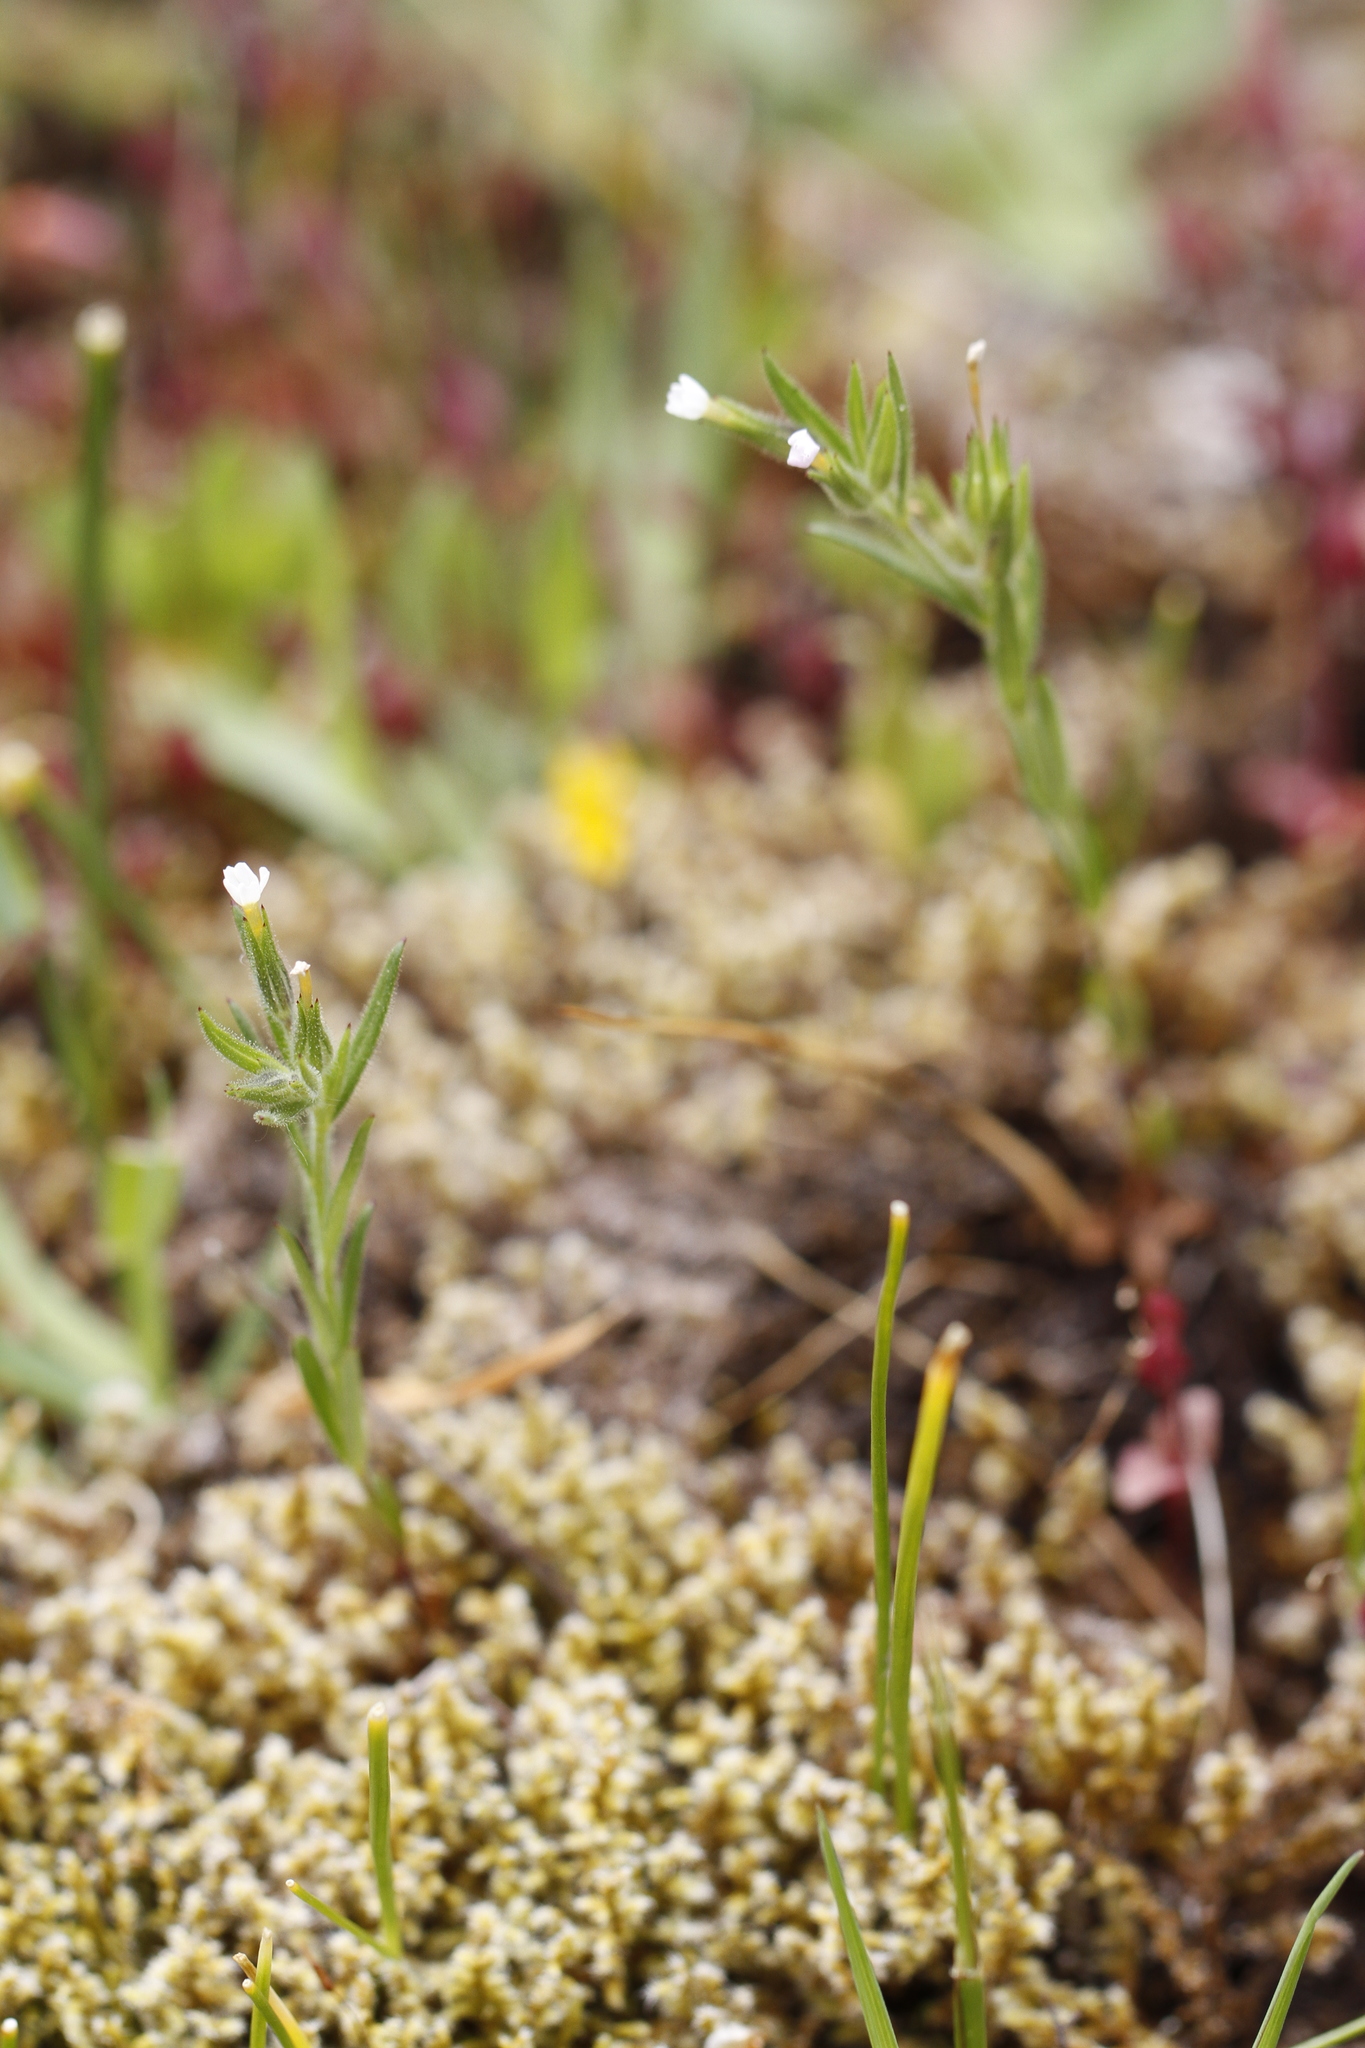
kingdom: Plantae
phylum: Tracheophyta
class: Magnoliopsida
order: Ericales
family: Polemoniaceae
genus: Phlox
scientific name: Phlox gracilis
